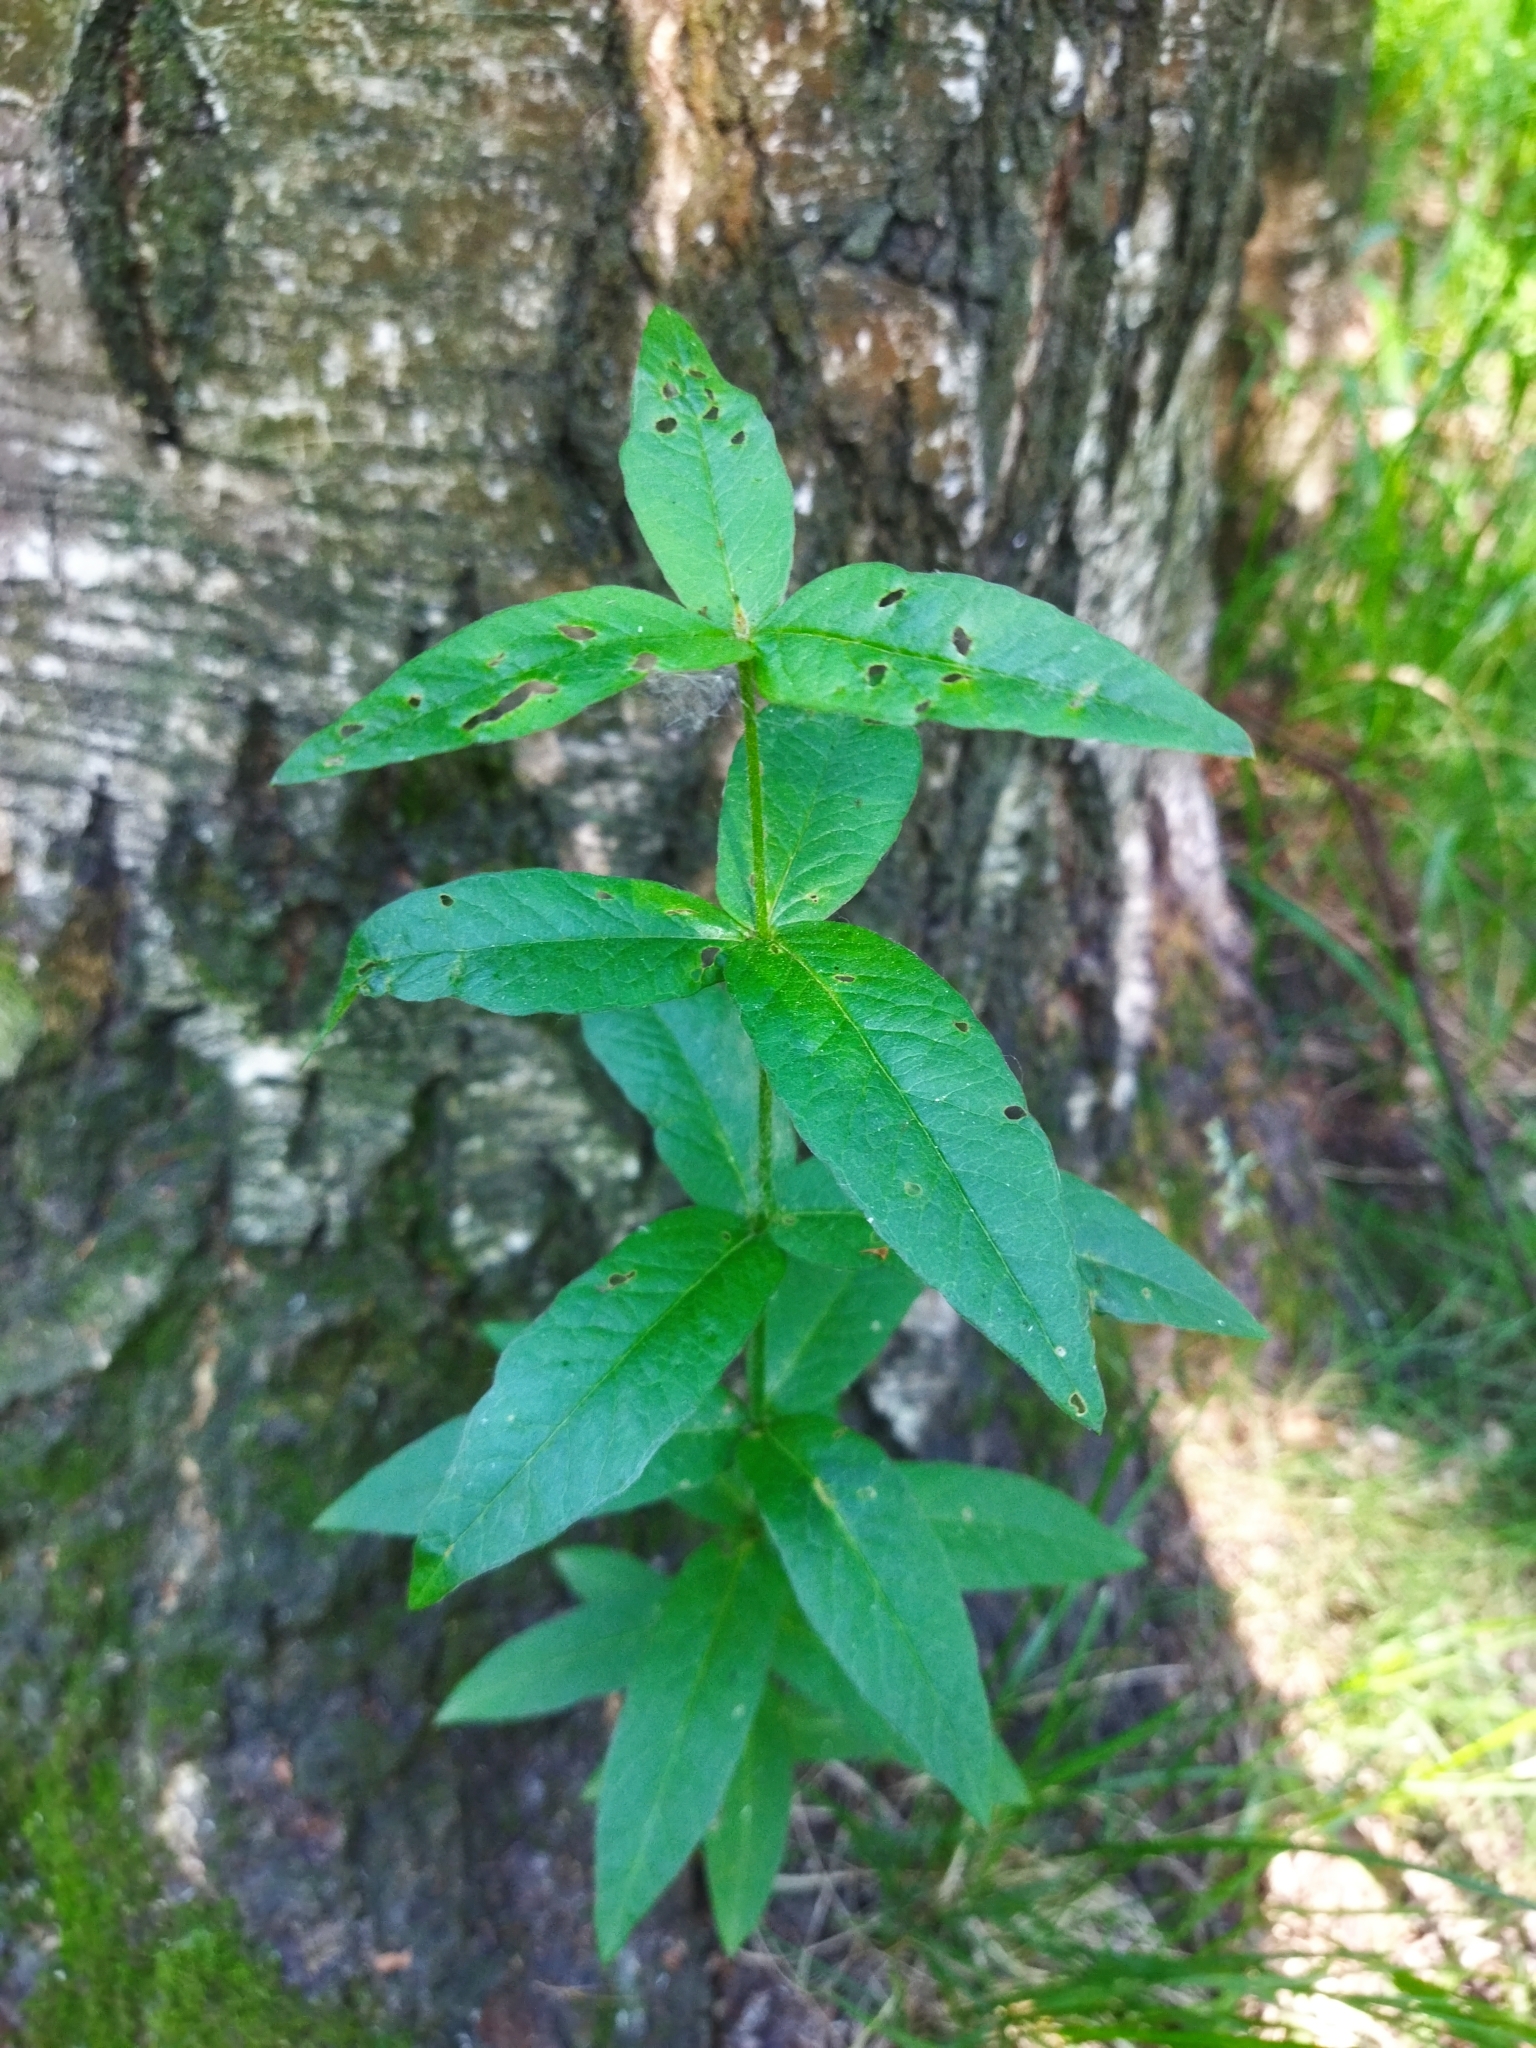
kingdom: Plantae
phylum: Tracheophyta
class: Magnoliopsida
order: Ericales
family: Primulaceae
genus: Lysimachia
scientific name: Lysimachia vulgaris
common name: Yellow loosestrife
